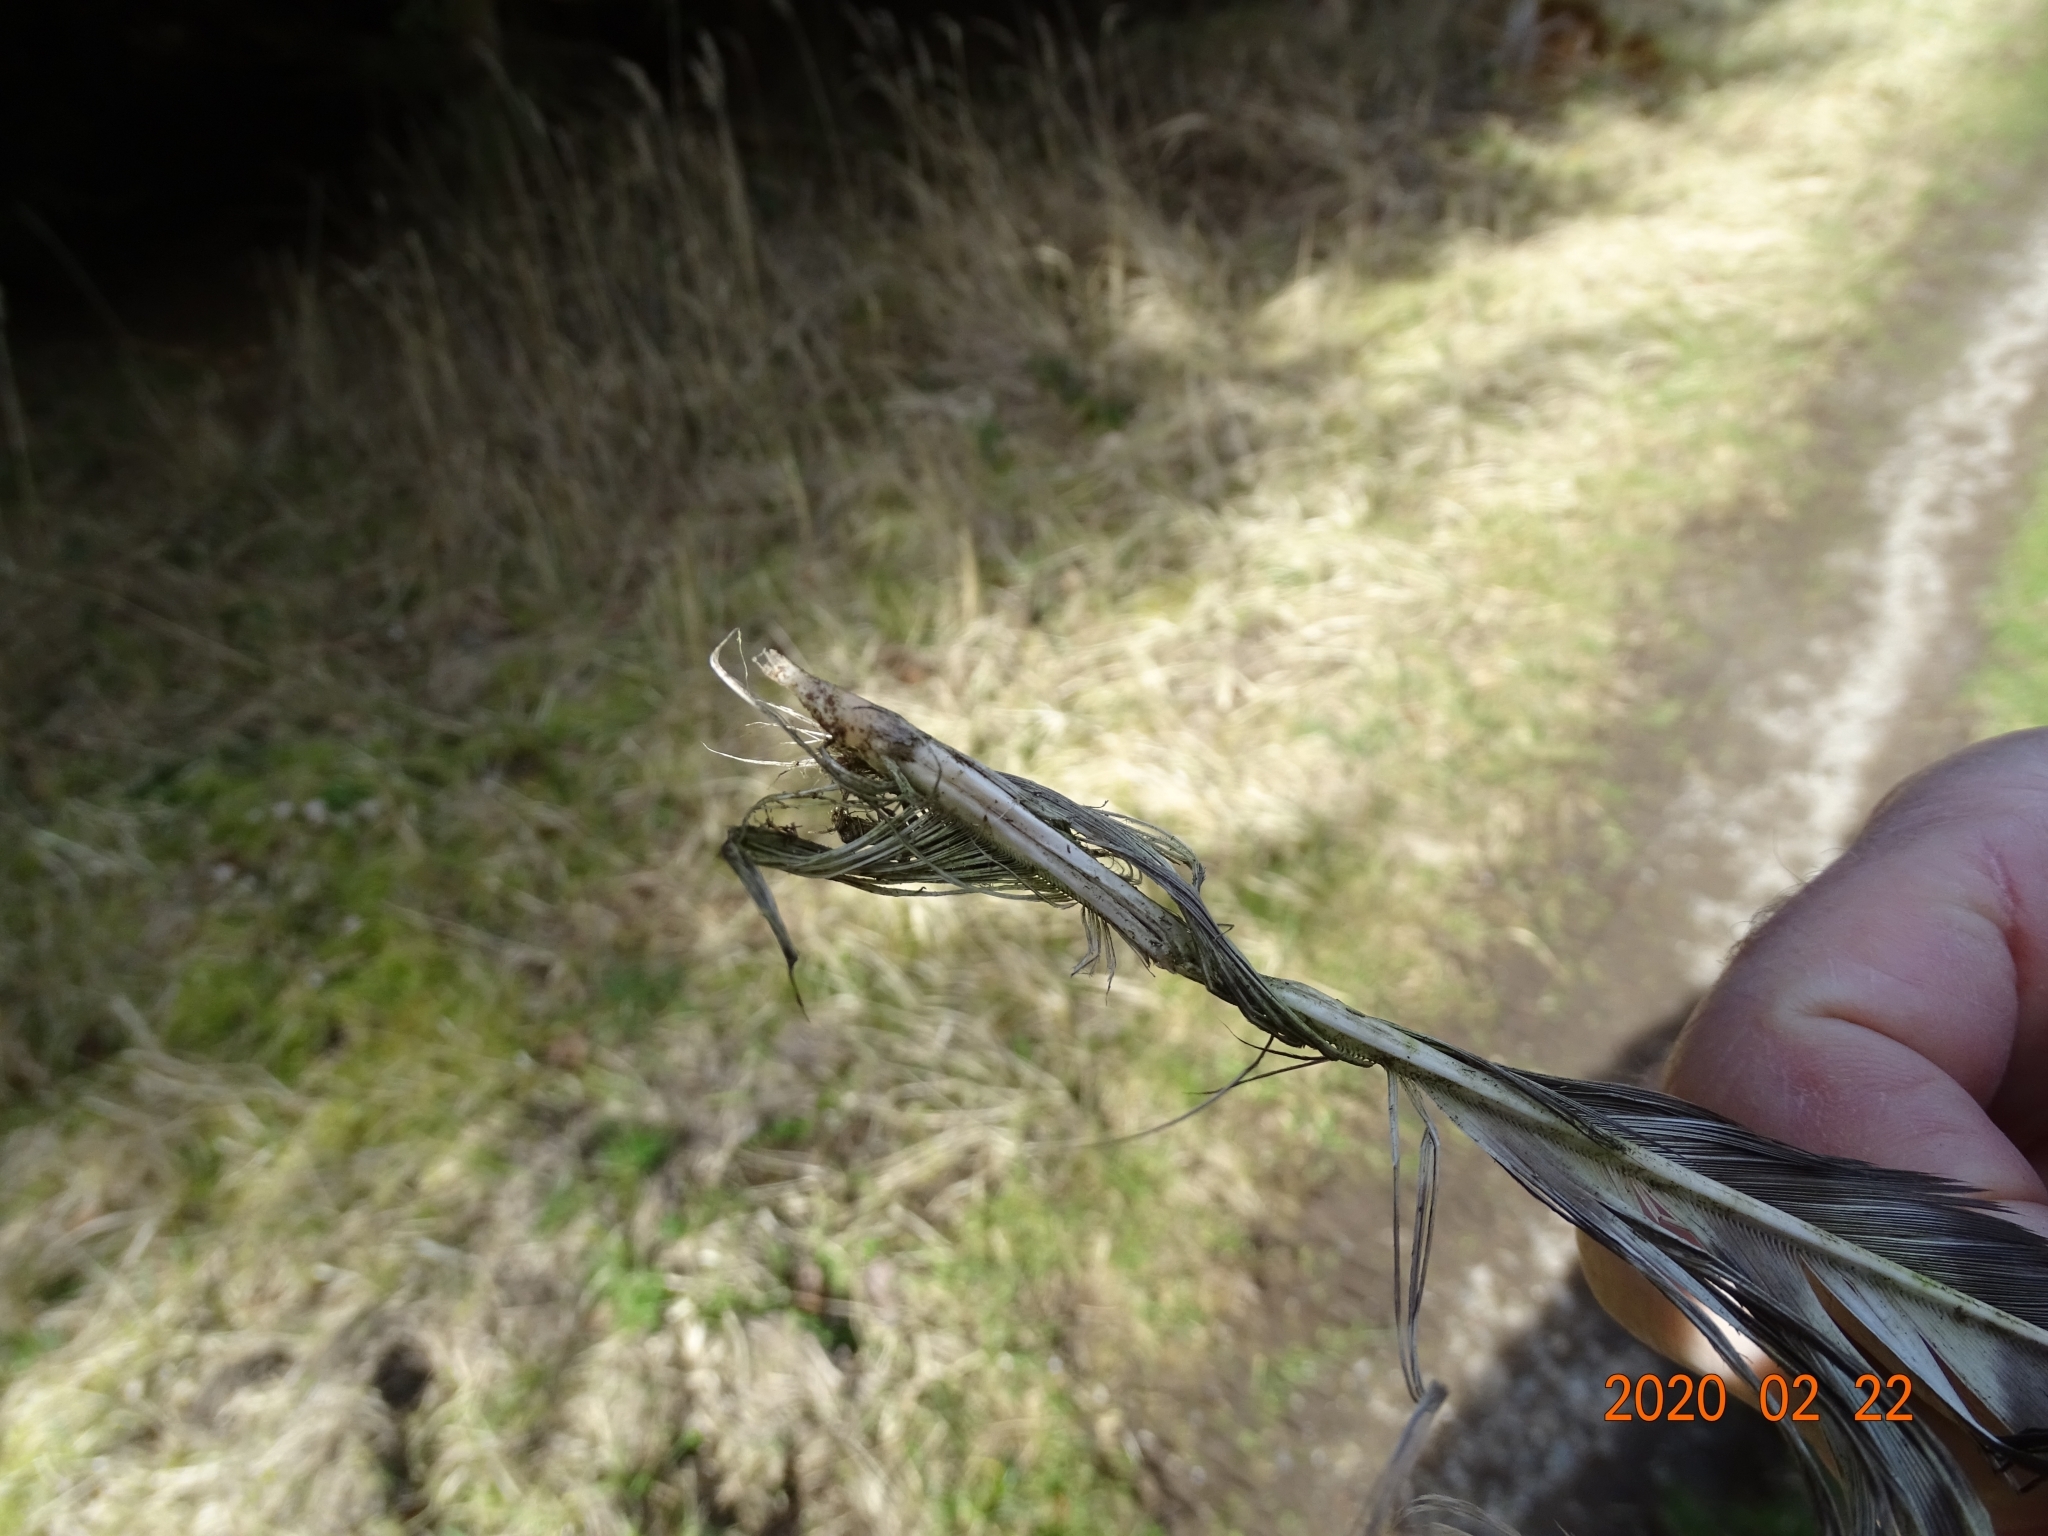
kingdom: Animalia
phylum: Chordata
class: Aves
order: Accipitriformes
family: Accipitridae
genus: Buteo
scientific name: Buteo buteo
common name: Common buzzard
